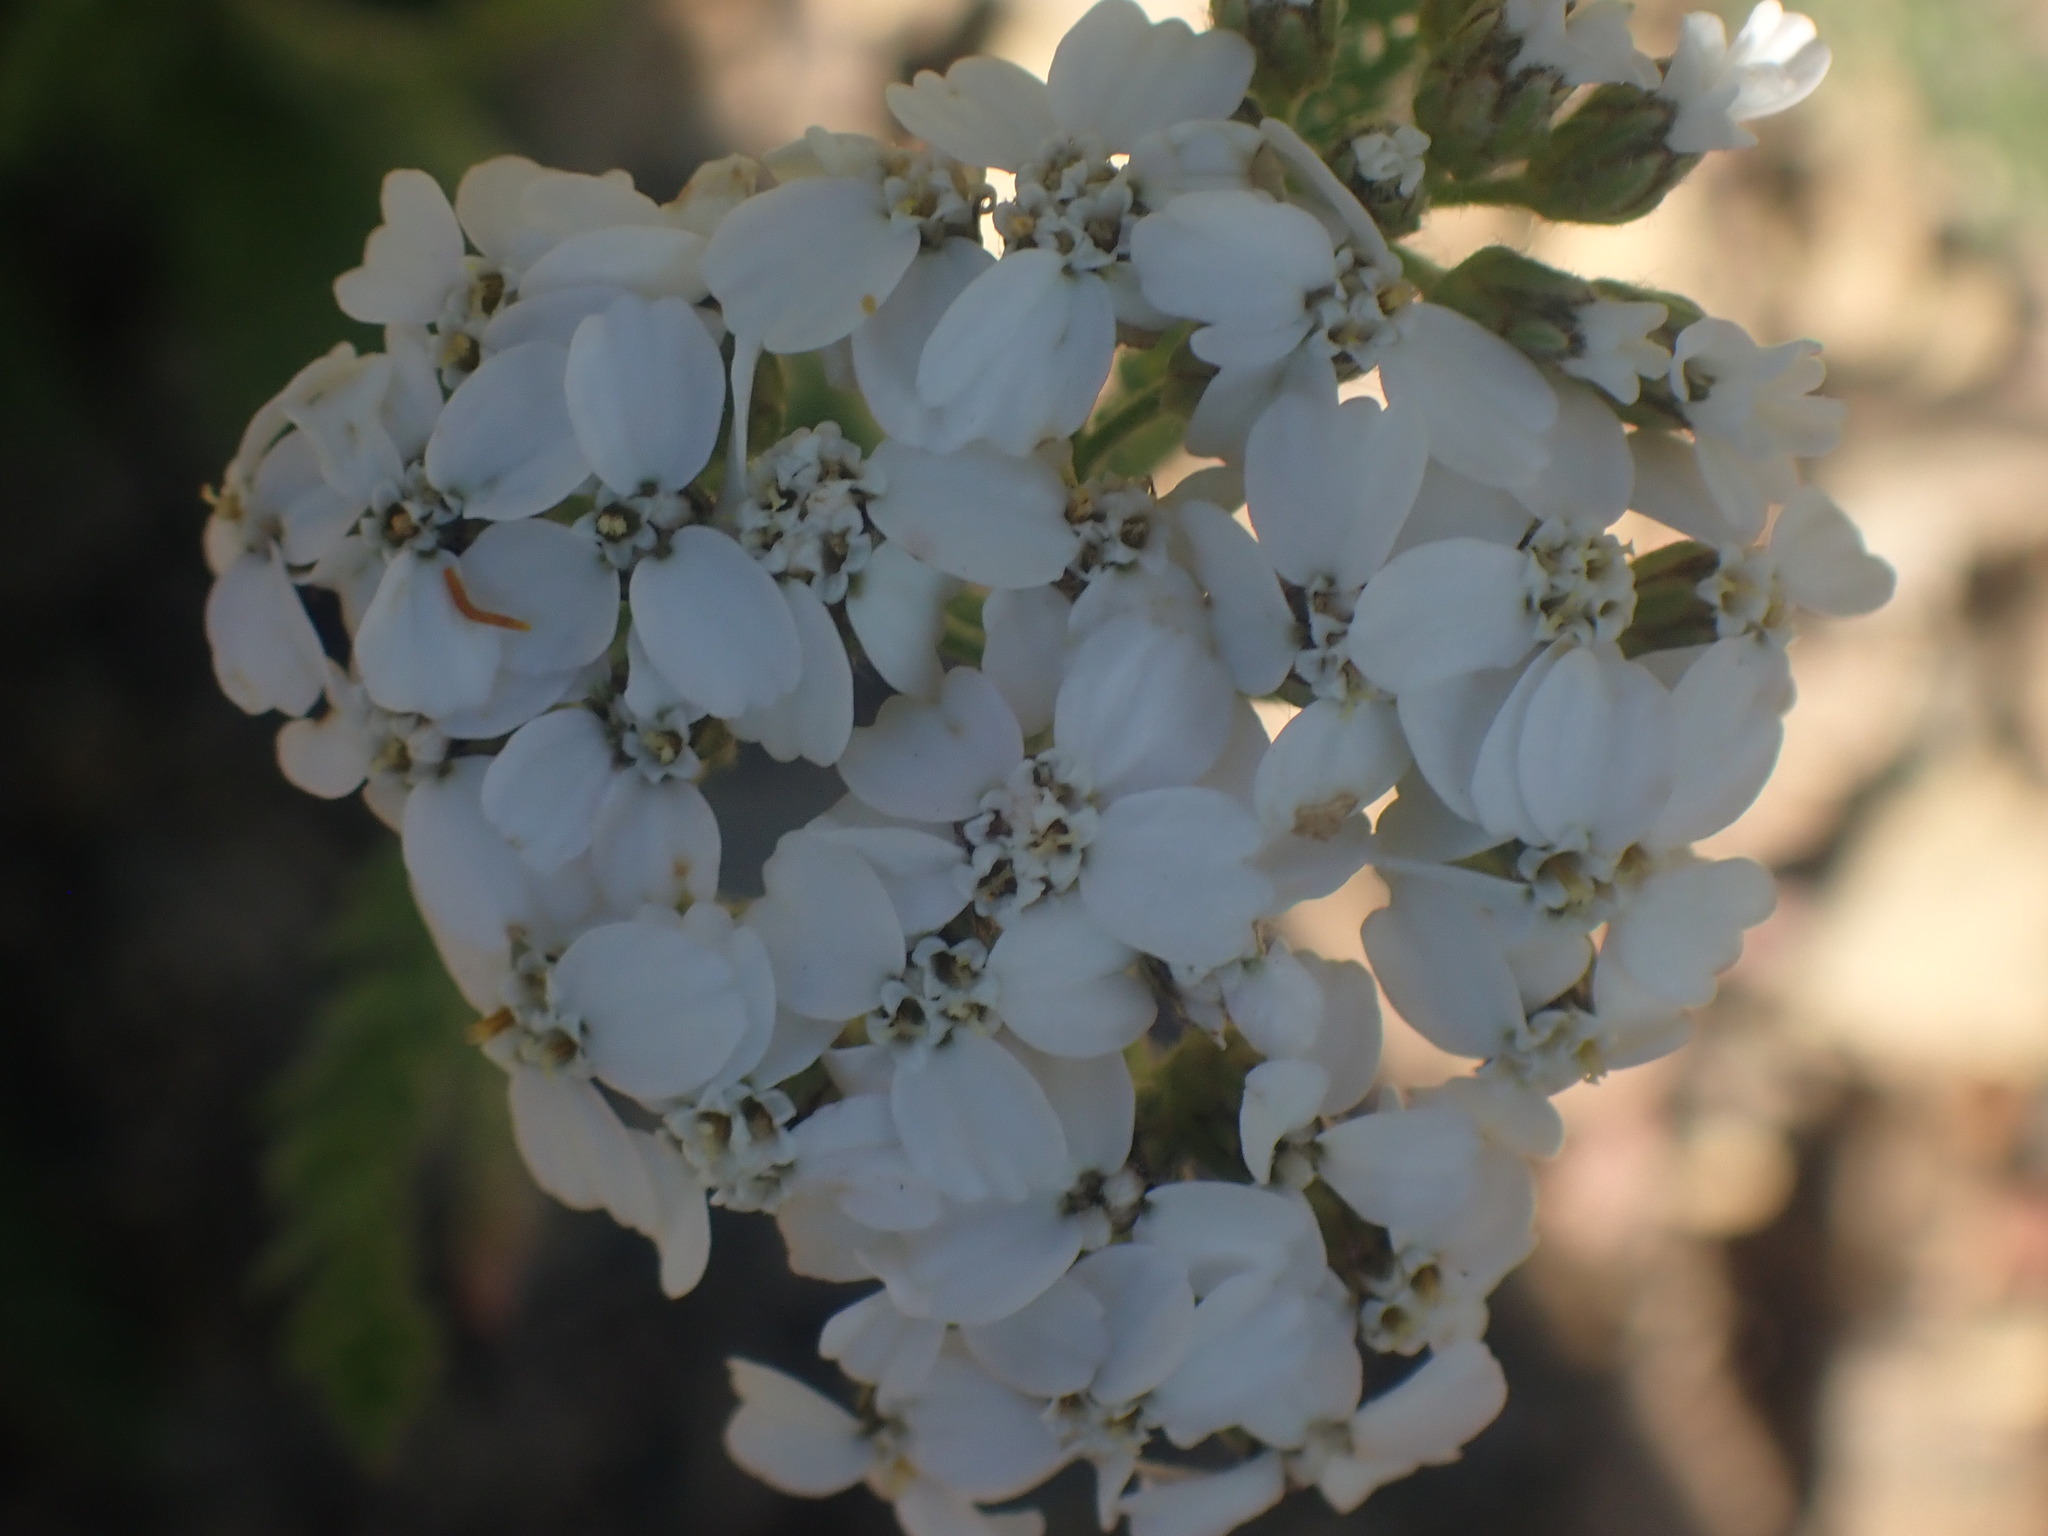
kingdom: Plantae
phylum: Tracheophyta
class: Magnoliopsida
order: Asterales
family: Asteraceae
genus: Achillea
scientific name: Achillea millefolium
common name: Yarrow
